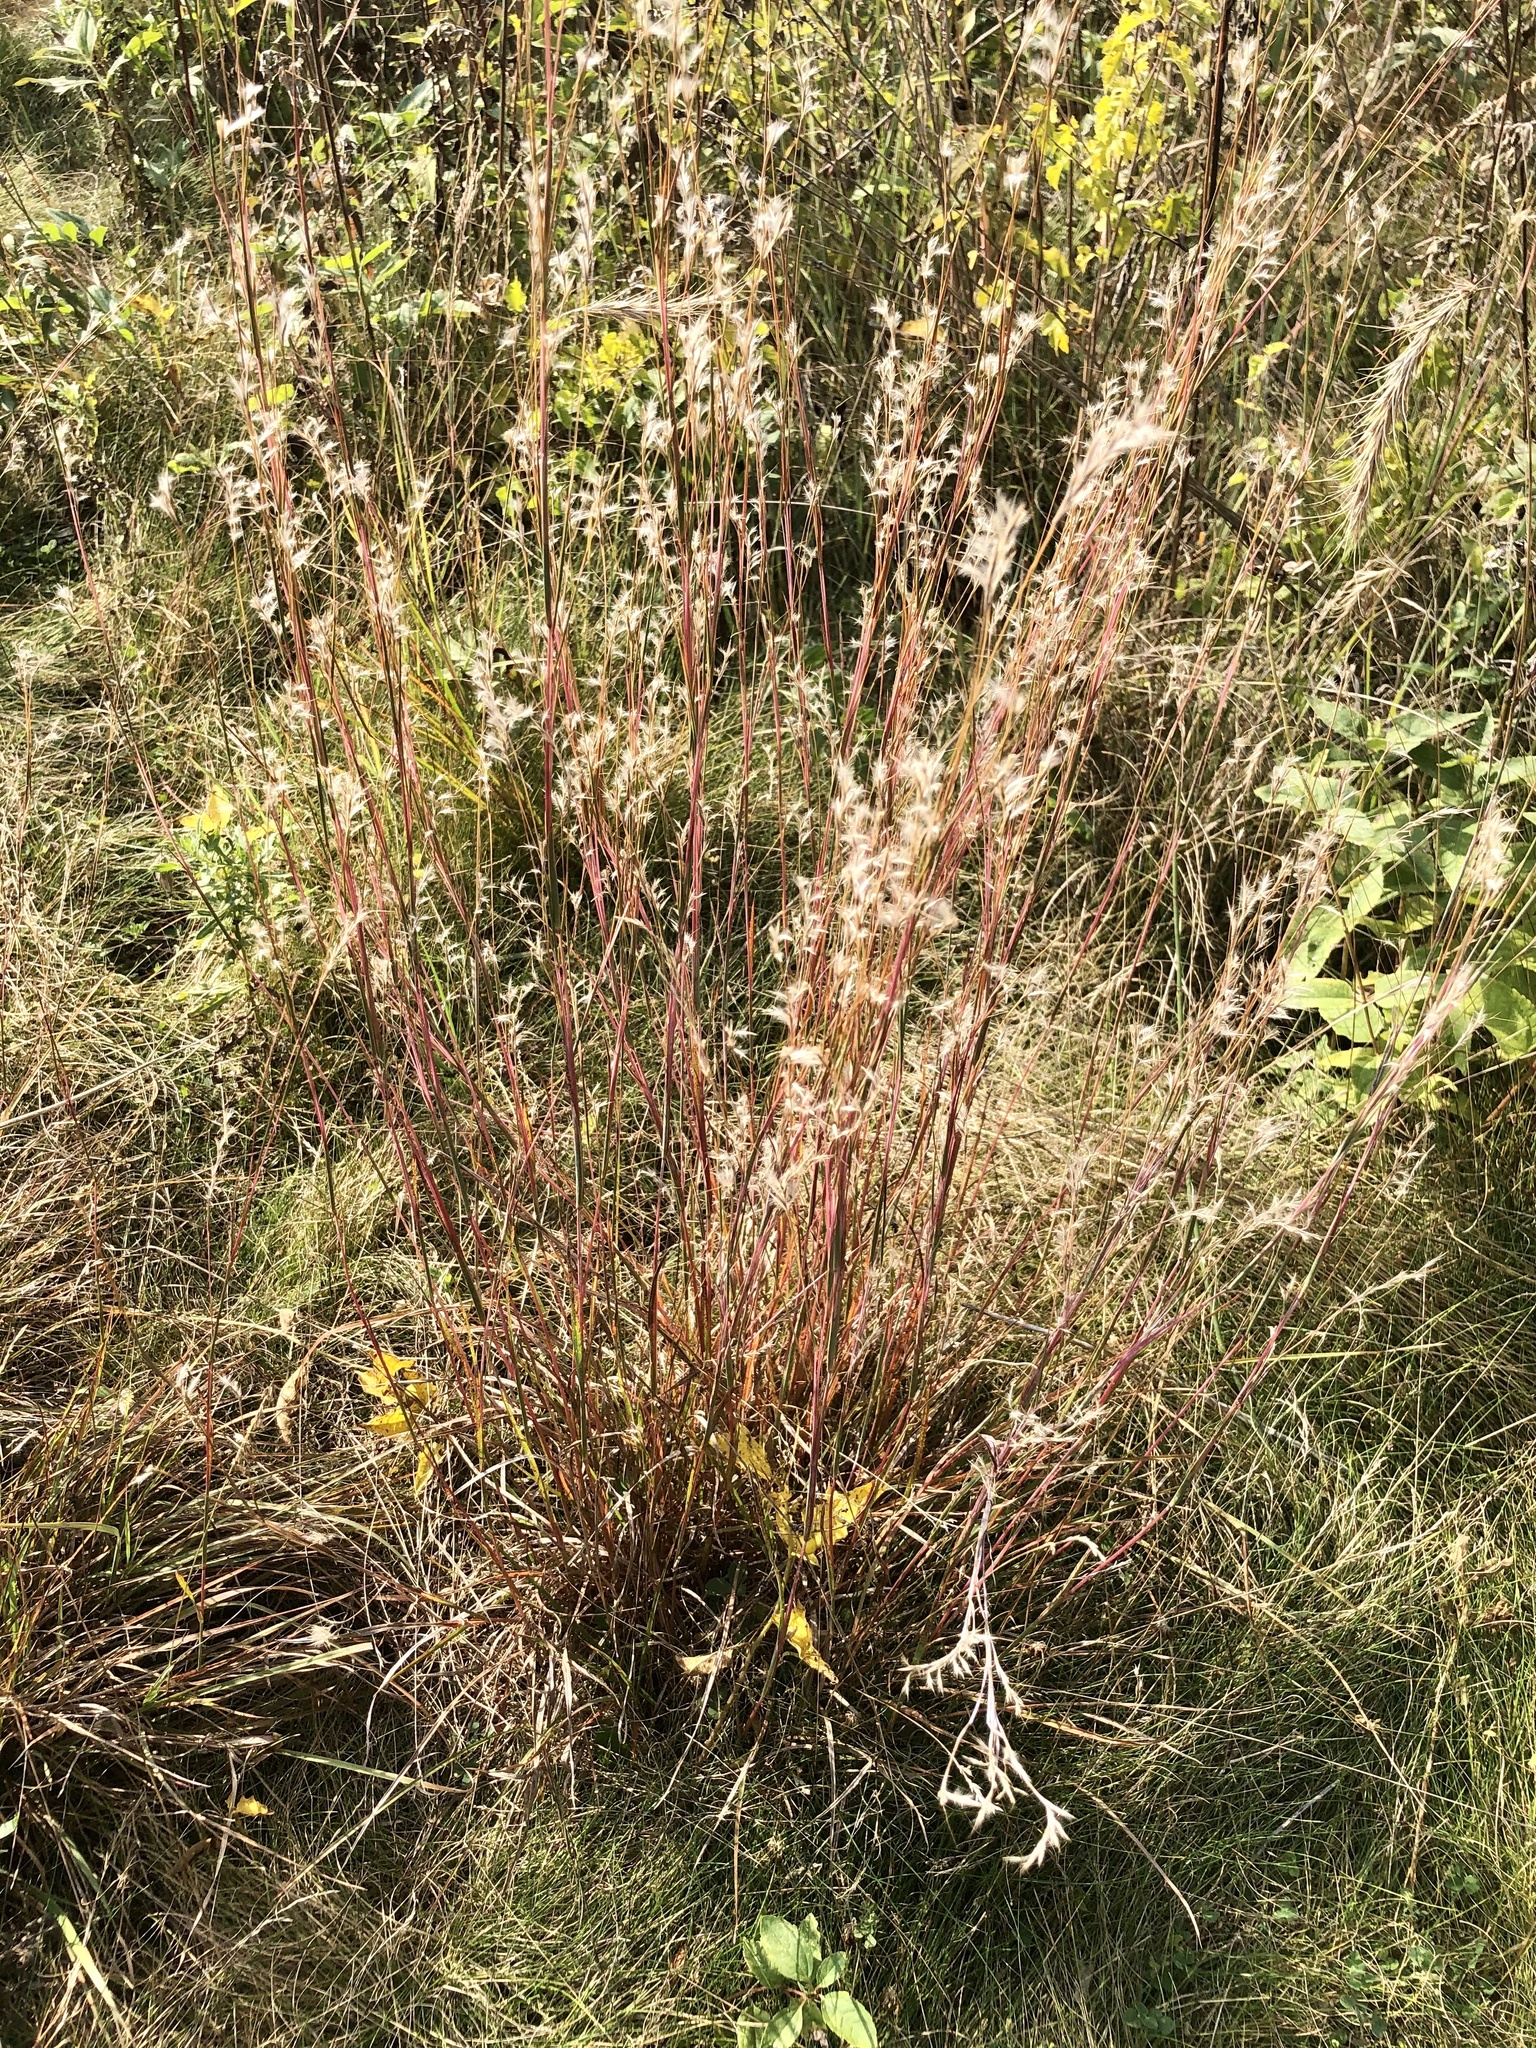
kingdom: Plantae
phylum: Tracheophyta
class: Liliopsida
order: Poales
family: Poaceae
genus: Schizachyrium
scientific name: Schizachyrium scoparium
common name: Little bluestem
